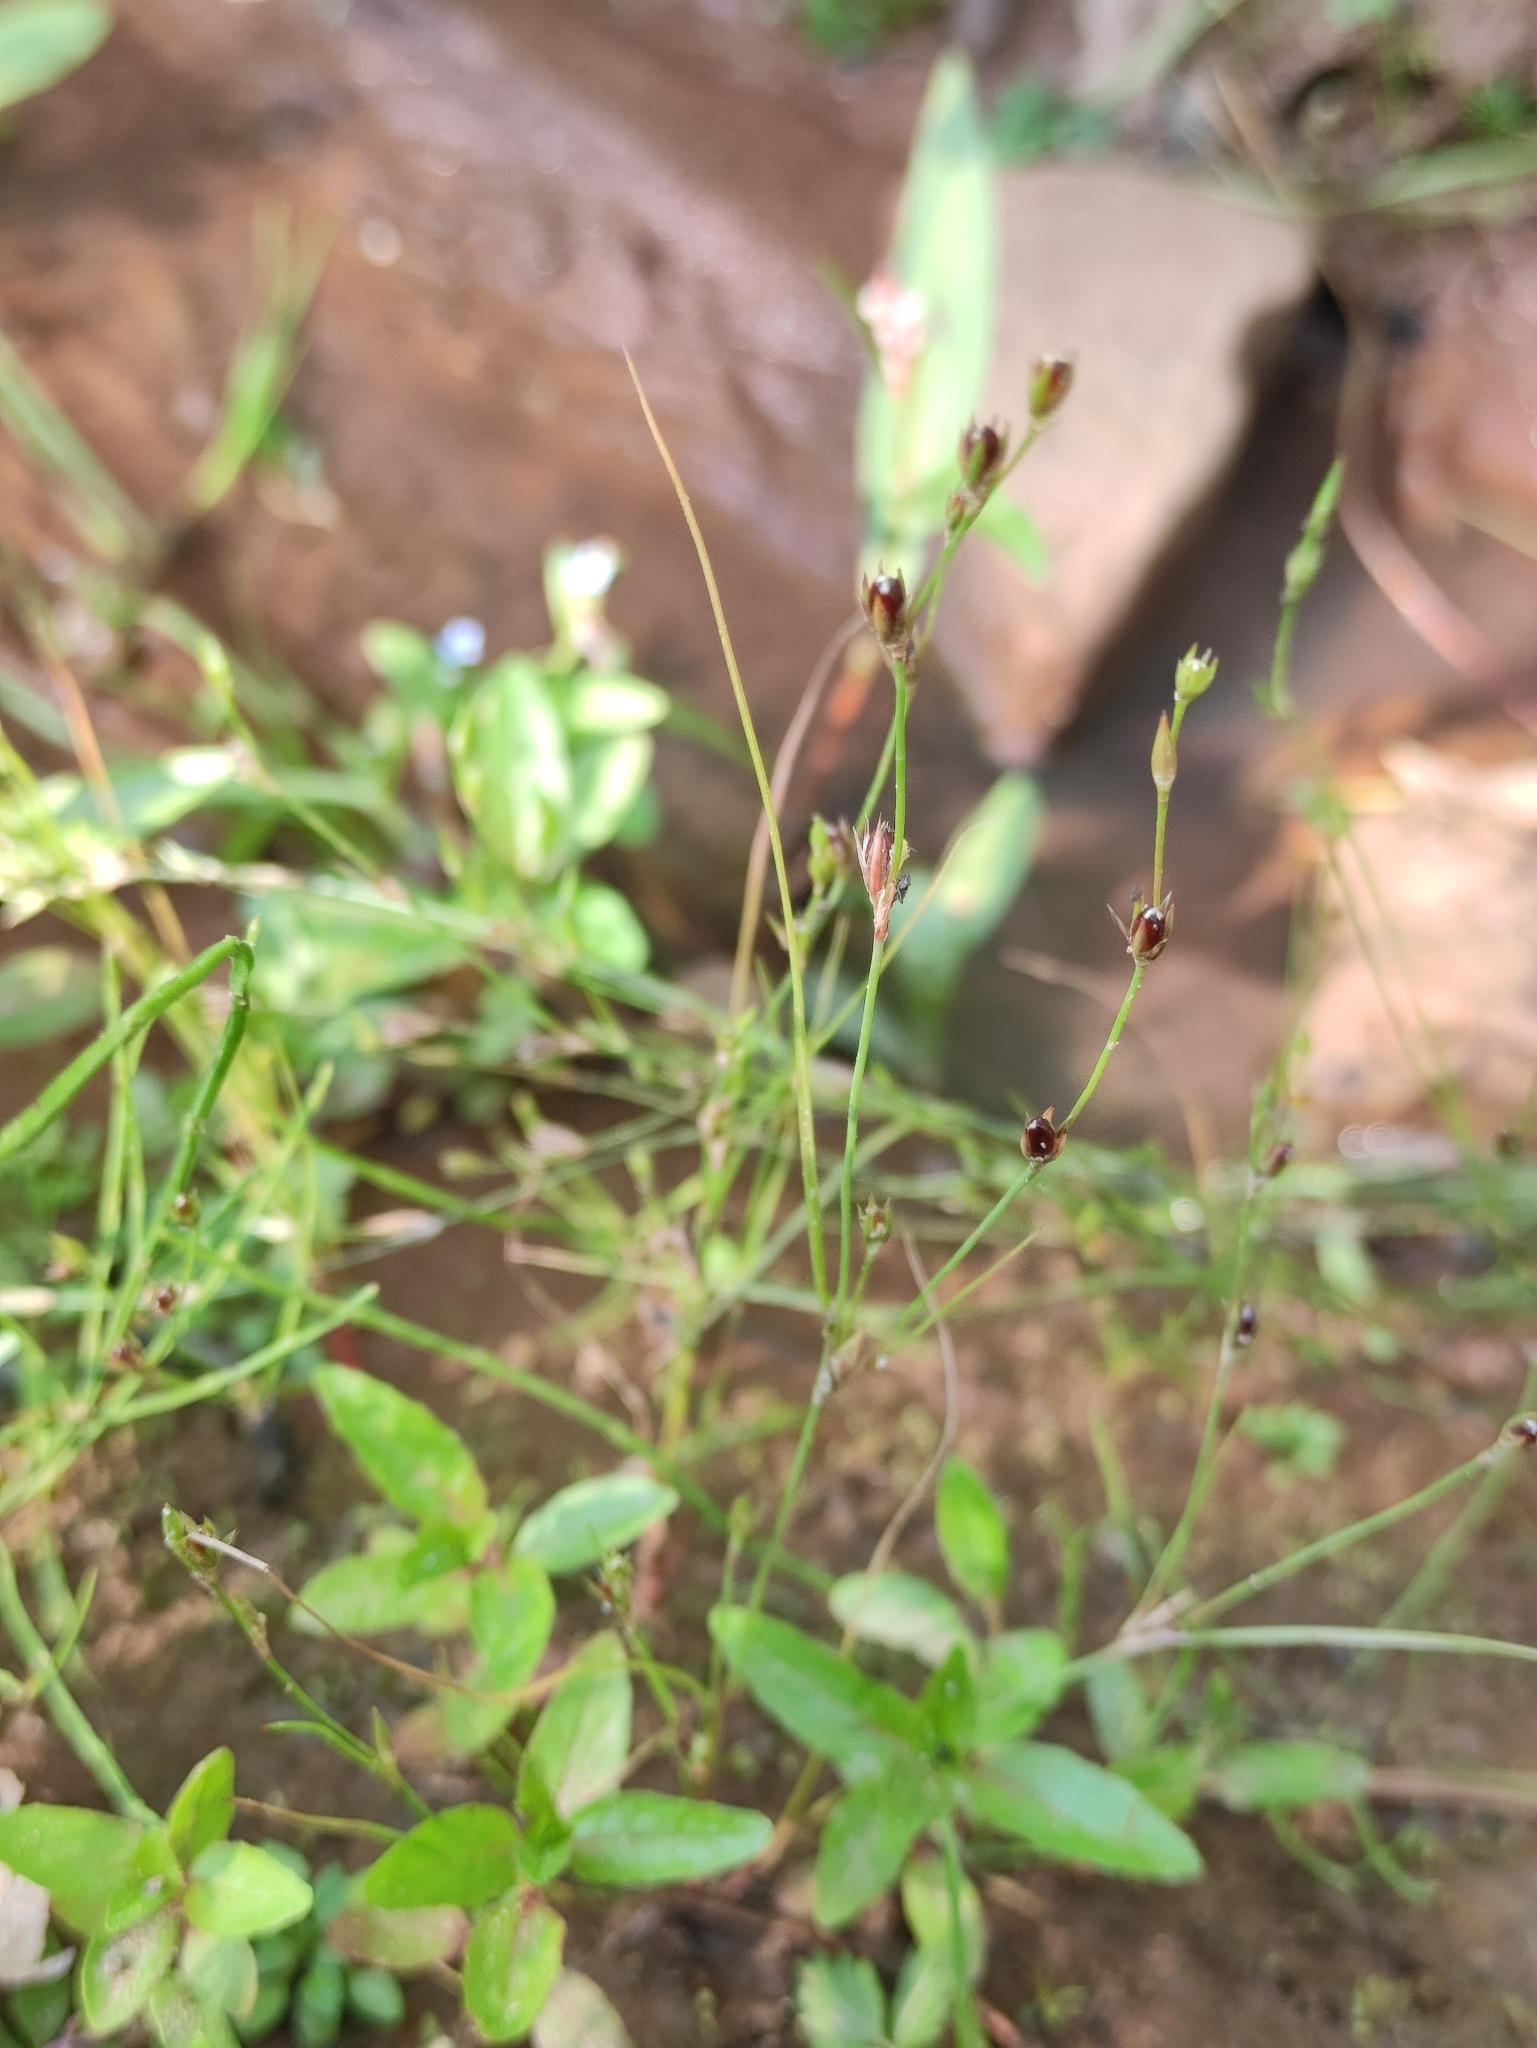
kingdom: Plantae
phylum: Tracheophyta
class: Liliopsida
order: Poales
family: Juncaceae
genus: Juncus
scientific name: Juncus bufonius
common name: Toad rush
